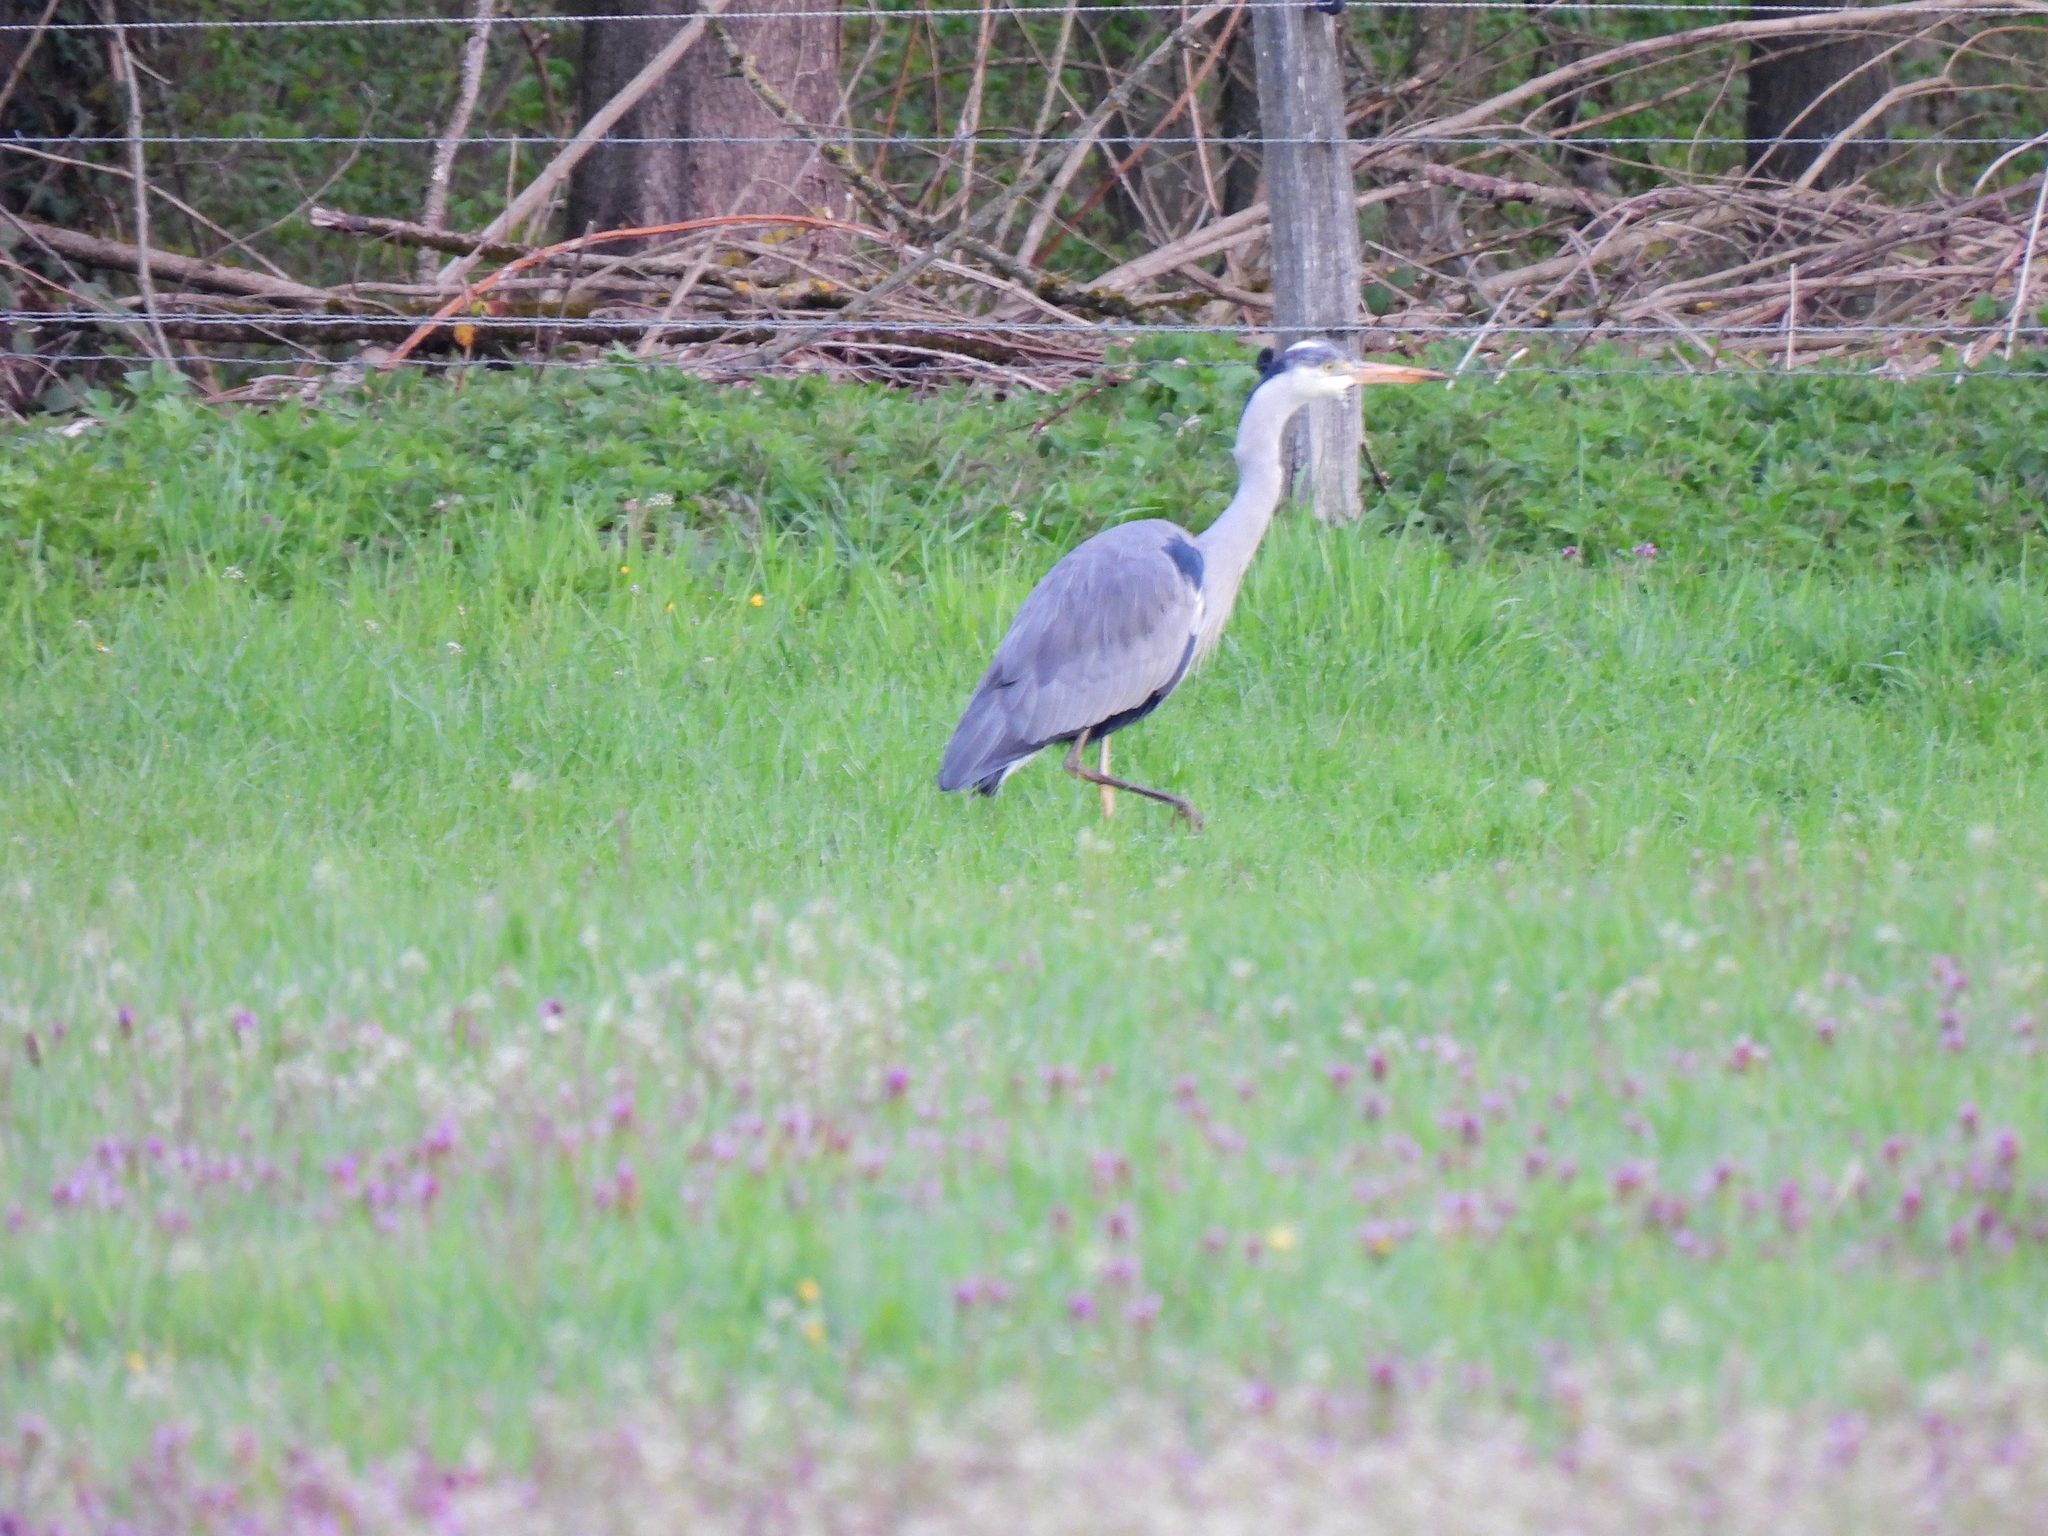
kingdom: Animalia
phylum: Chordata
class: Aves
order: Pelecaniformes
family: Ardeidae
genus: Ardea
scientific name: Ardea cinerea
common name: Grey heron
